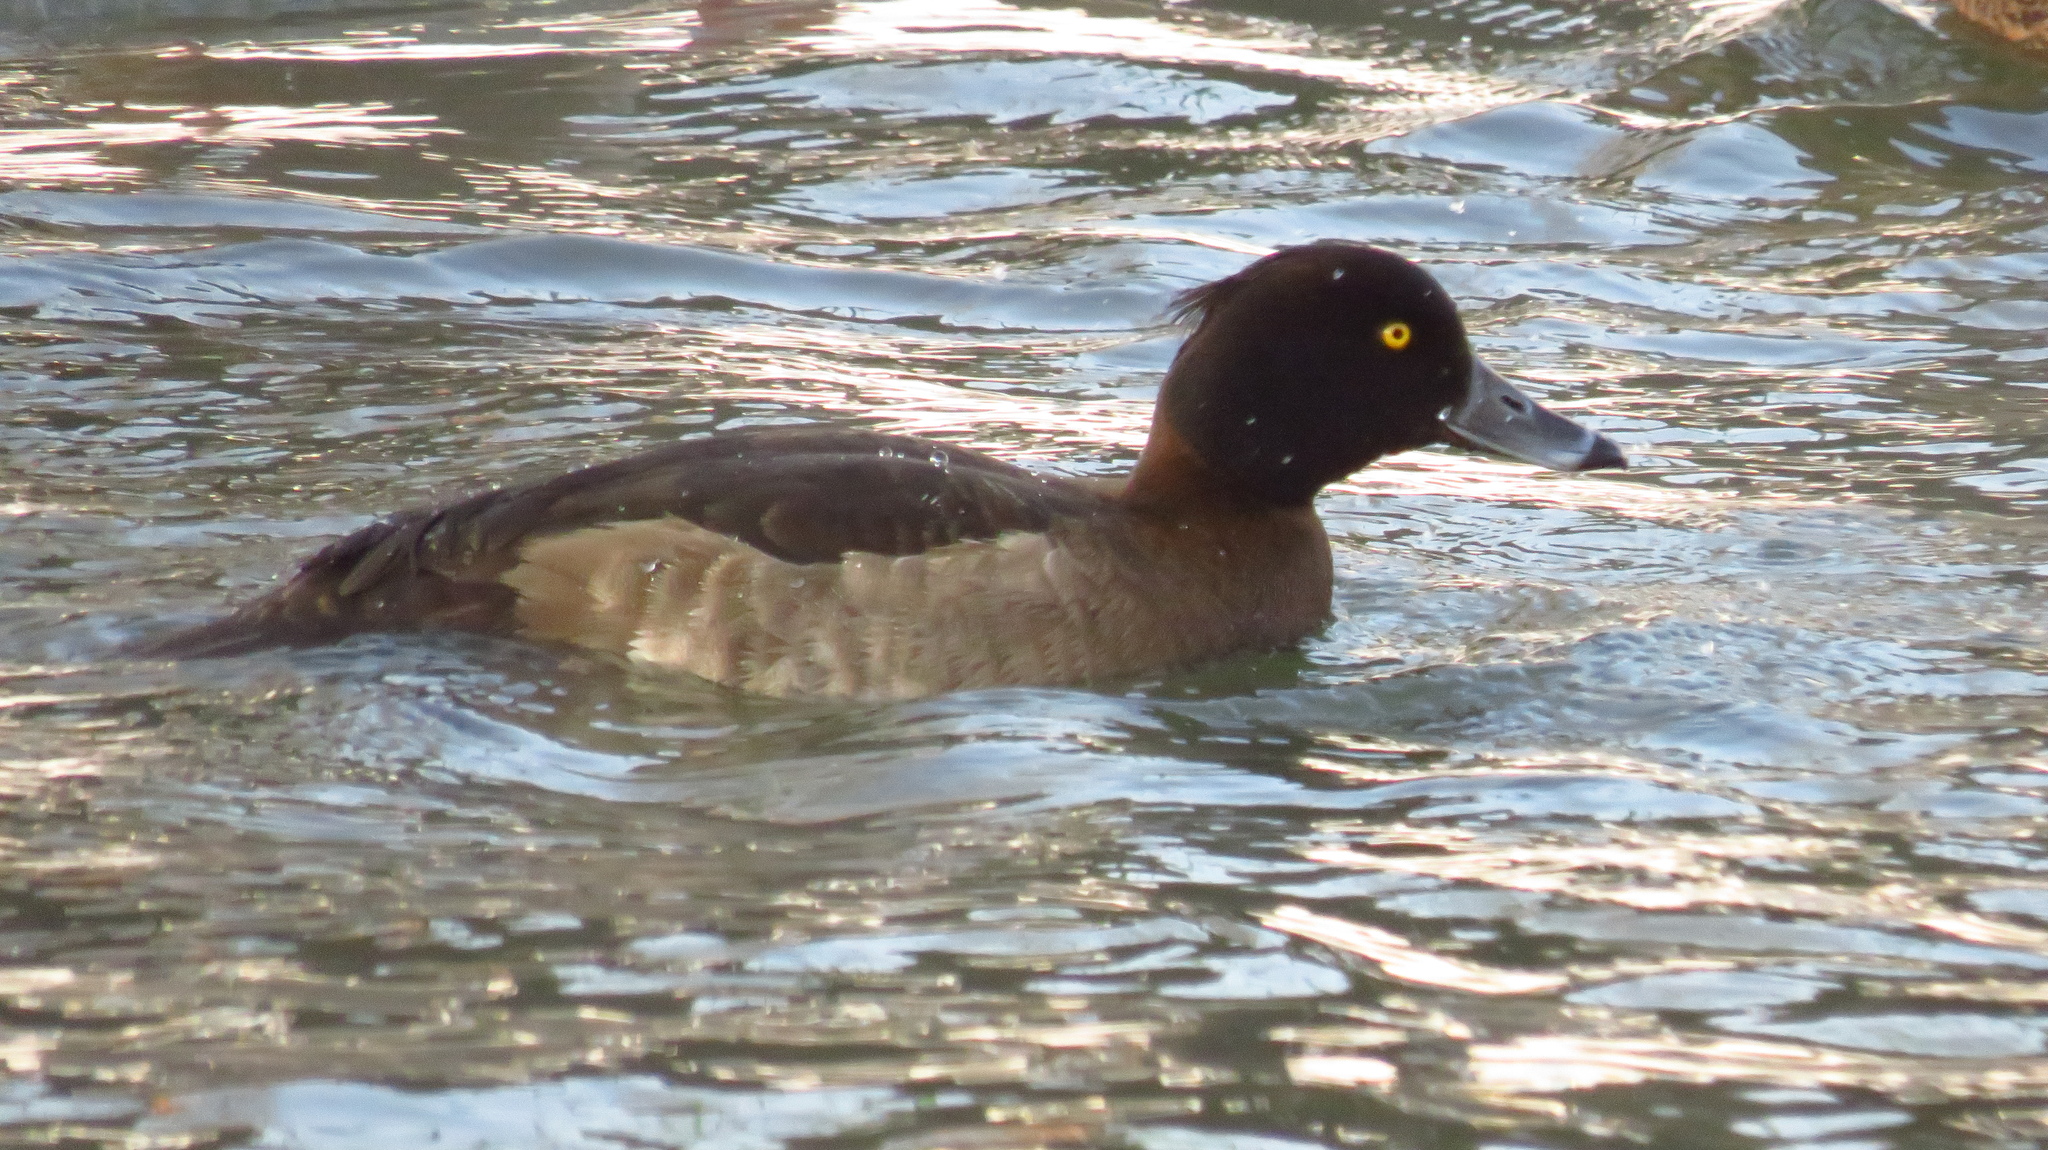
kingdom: Animalia
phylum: Chordata
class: Aves
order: Anseriformes
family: Anatidae
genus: Aythya
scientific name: Aythya fuligula
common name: Tufted duck
